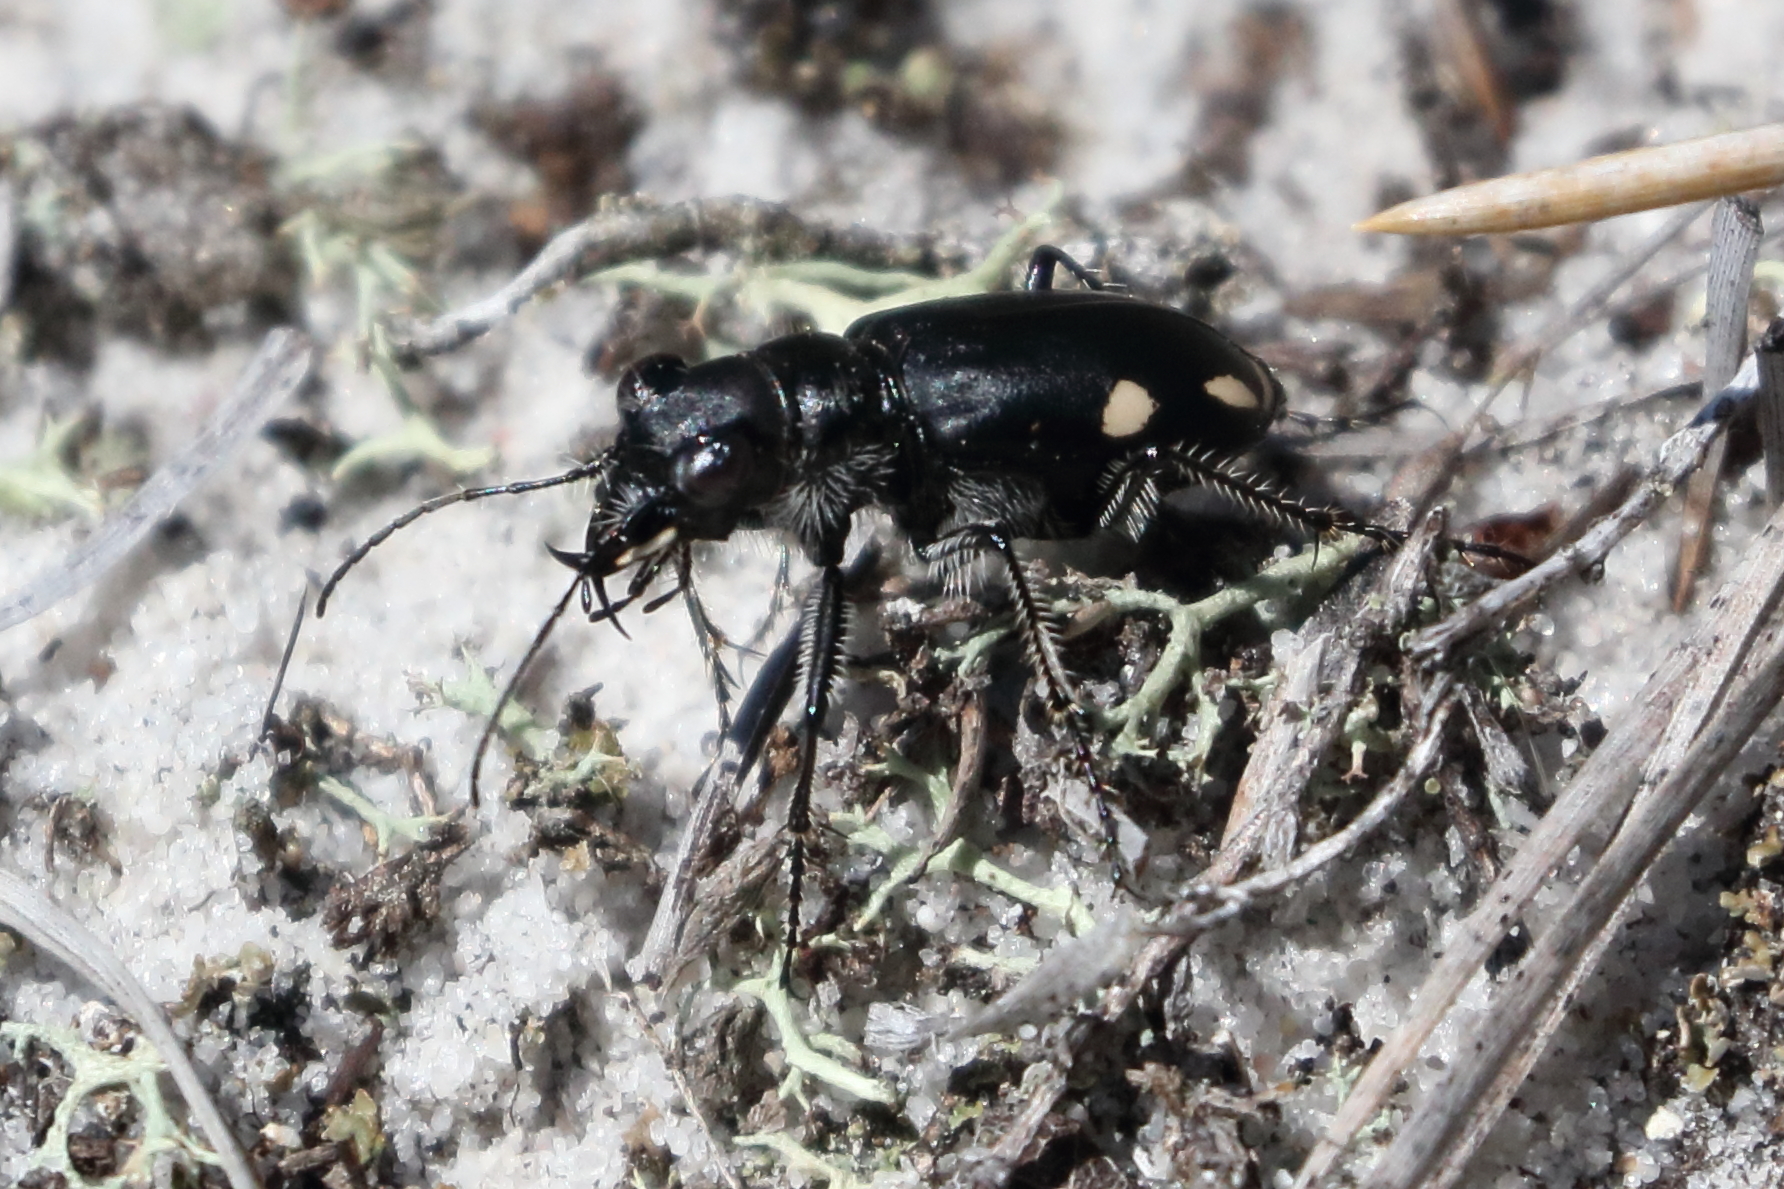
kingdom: Animalia
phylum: Arthropoda
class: Insecta
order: Coleoptera
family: Carabidae
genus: Cicindela
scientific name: Cicindela scutellaris
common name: Festive tiger beetle
